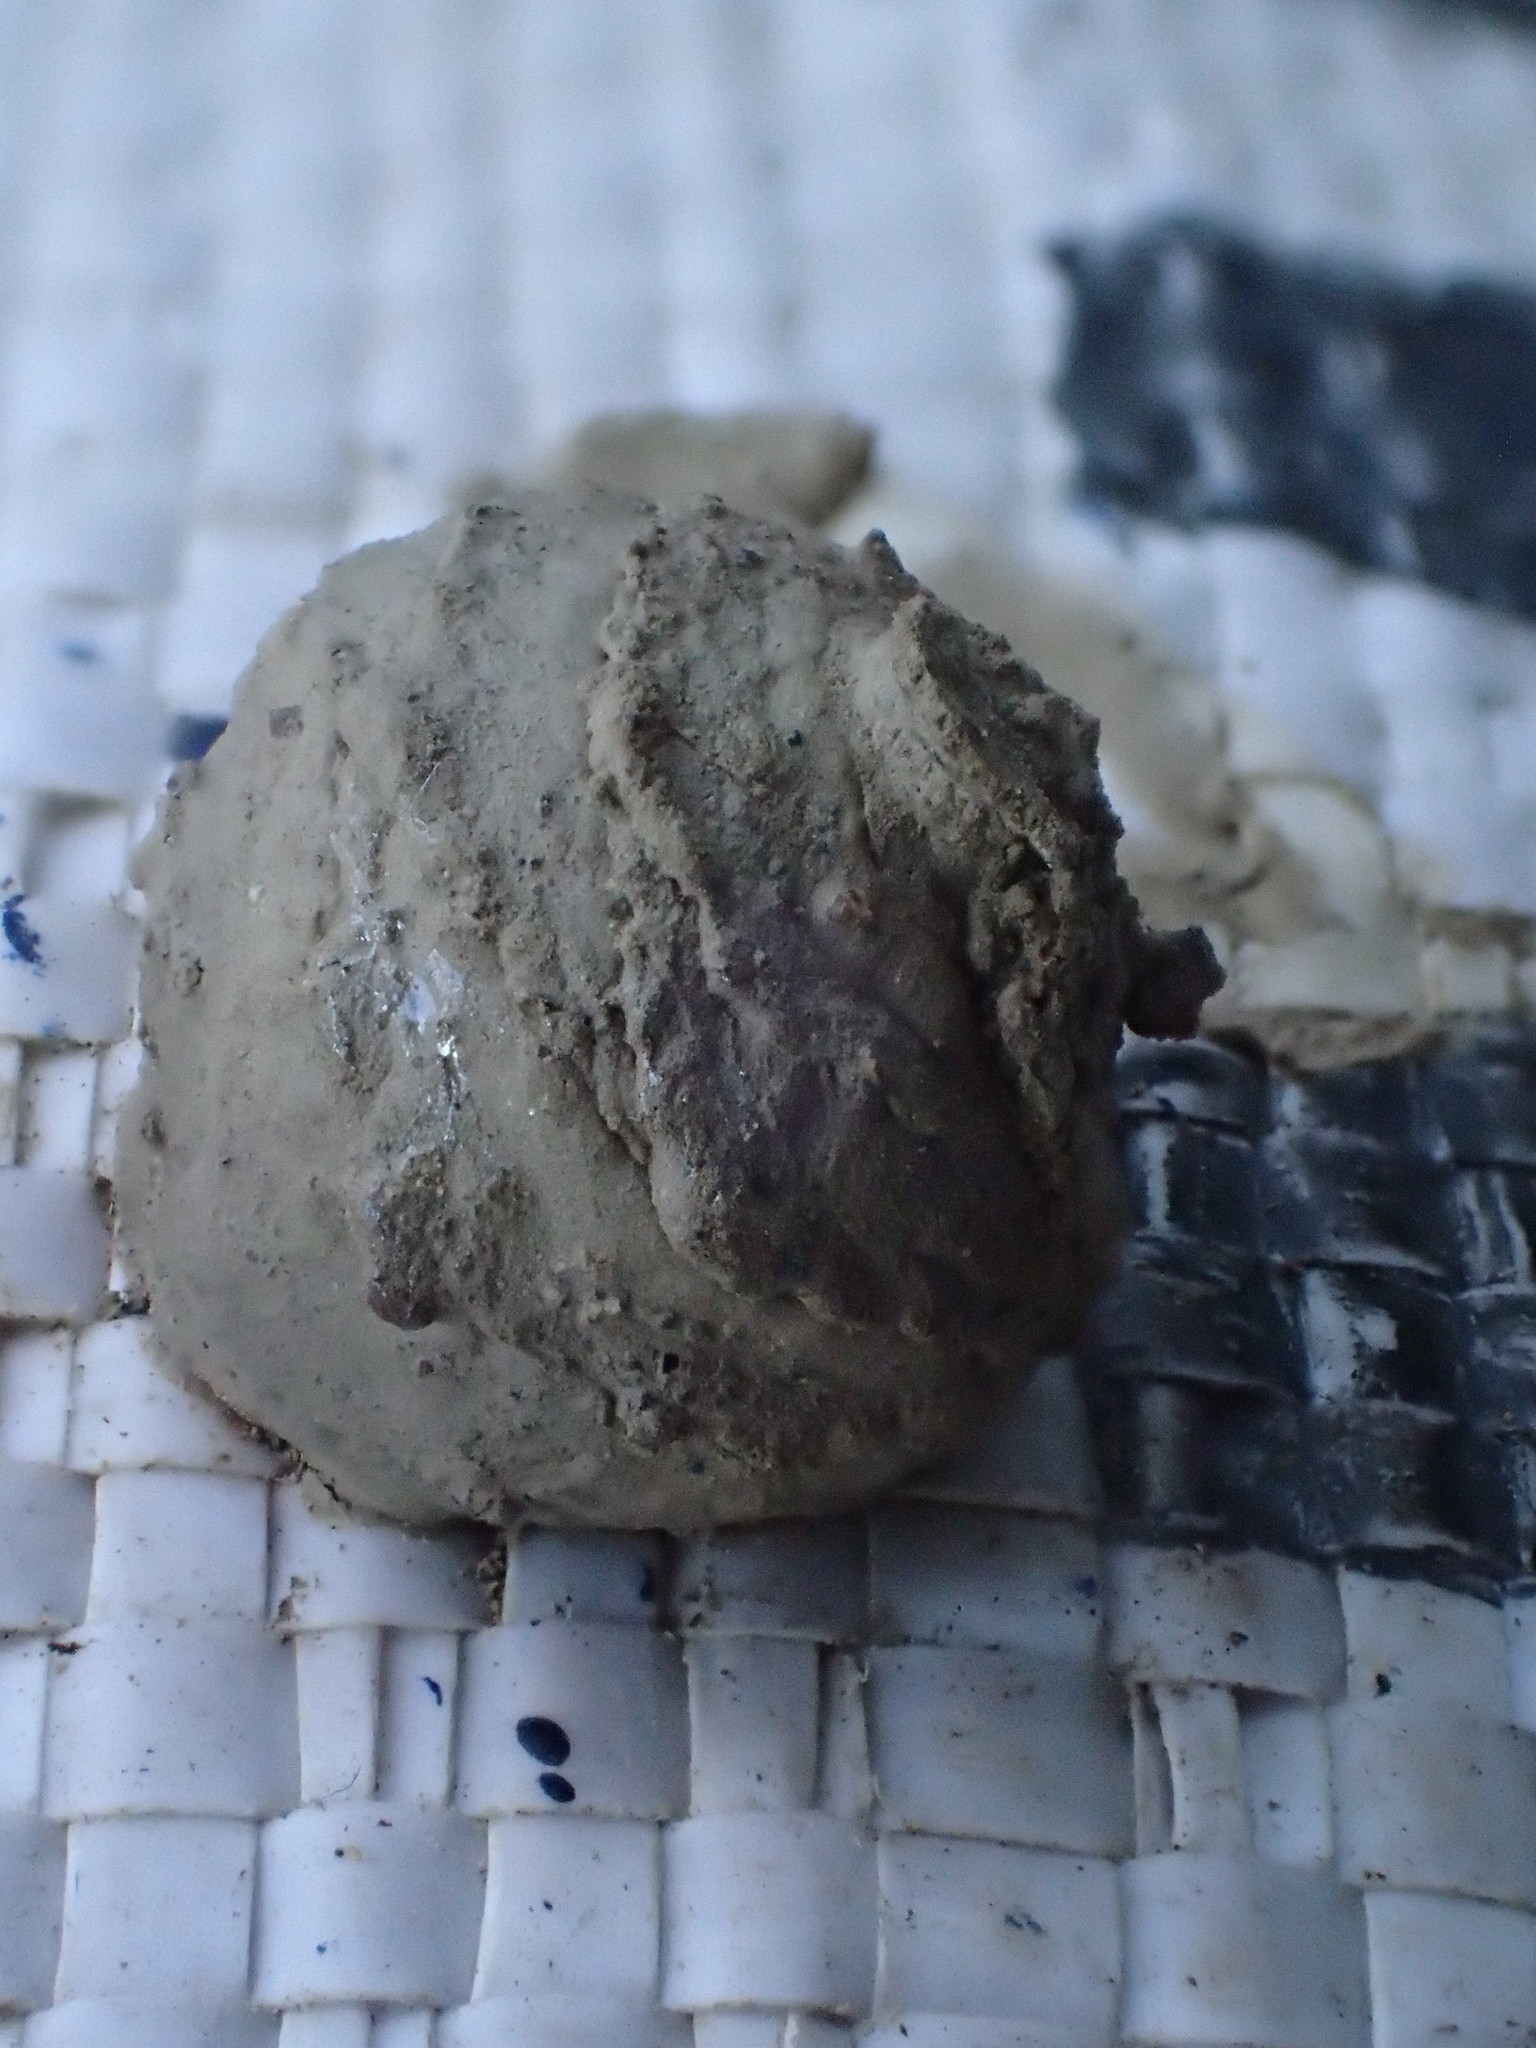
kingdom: Animalia
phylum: Arthropoda
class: Insecta
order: Hymenoptera
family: Vespidae
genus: Eumenes
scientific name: Eumenes
